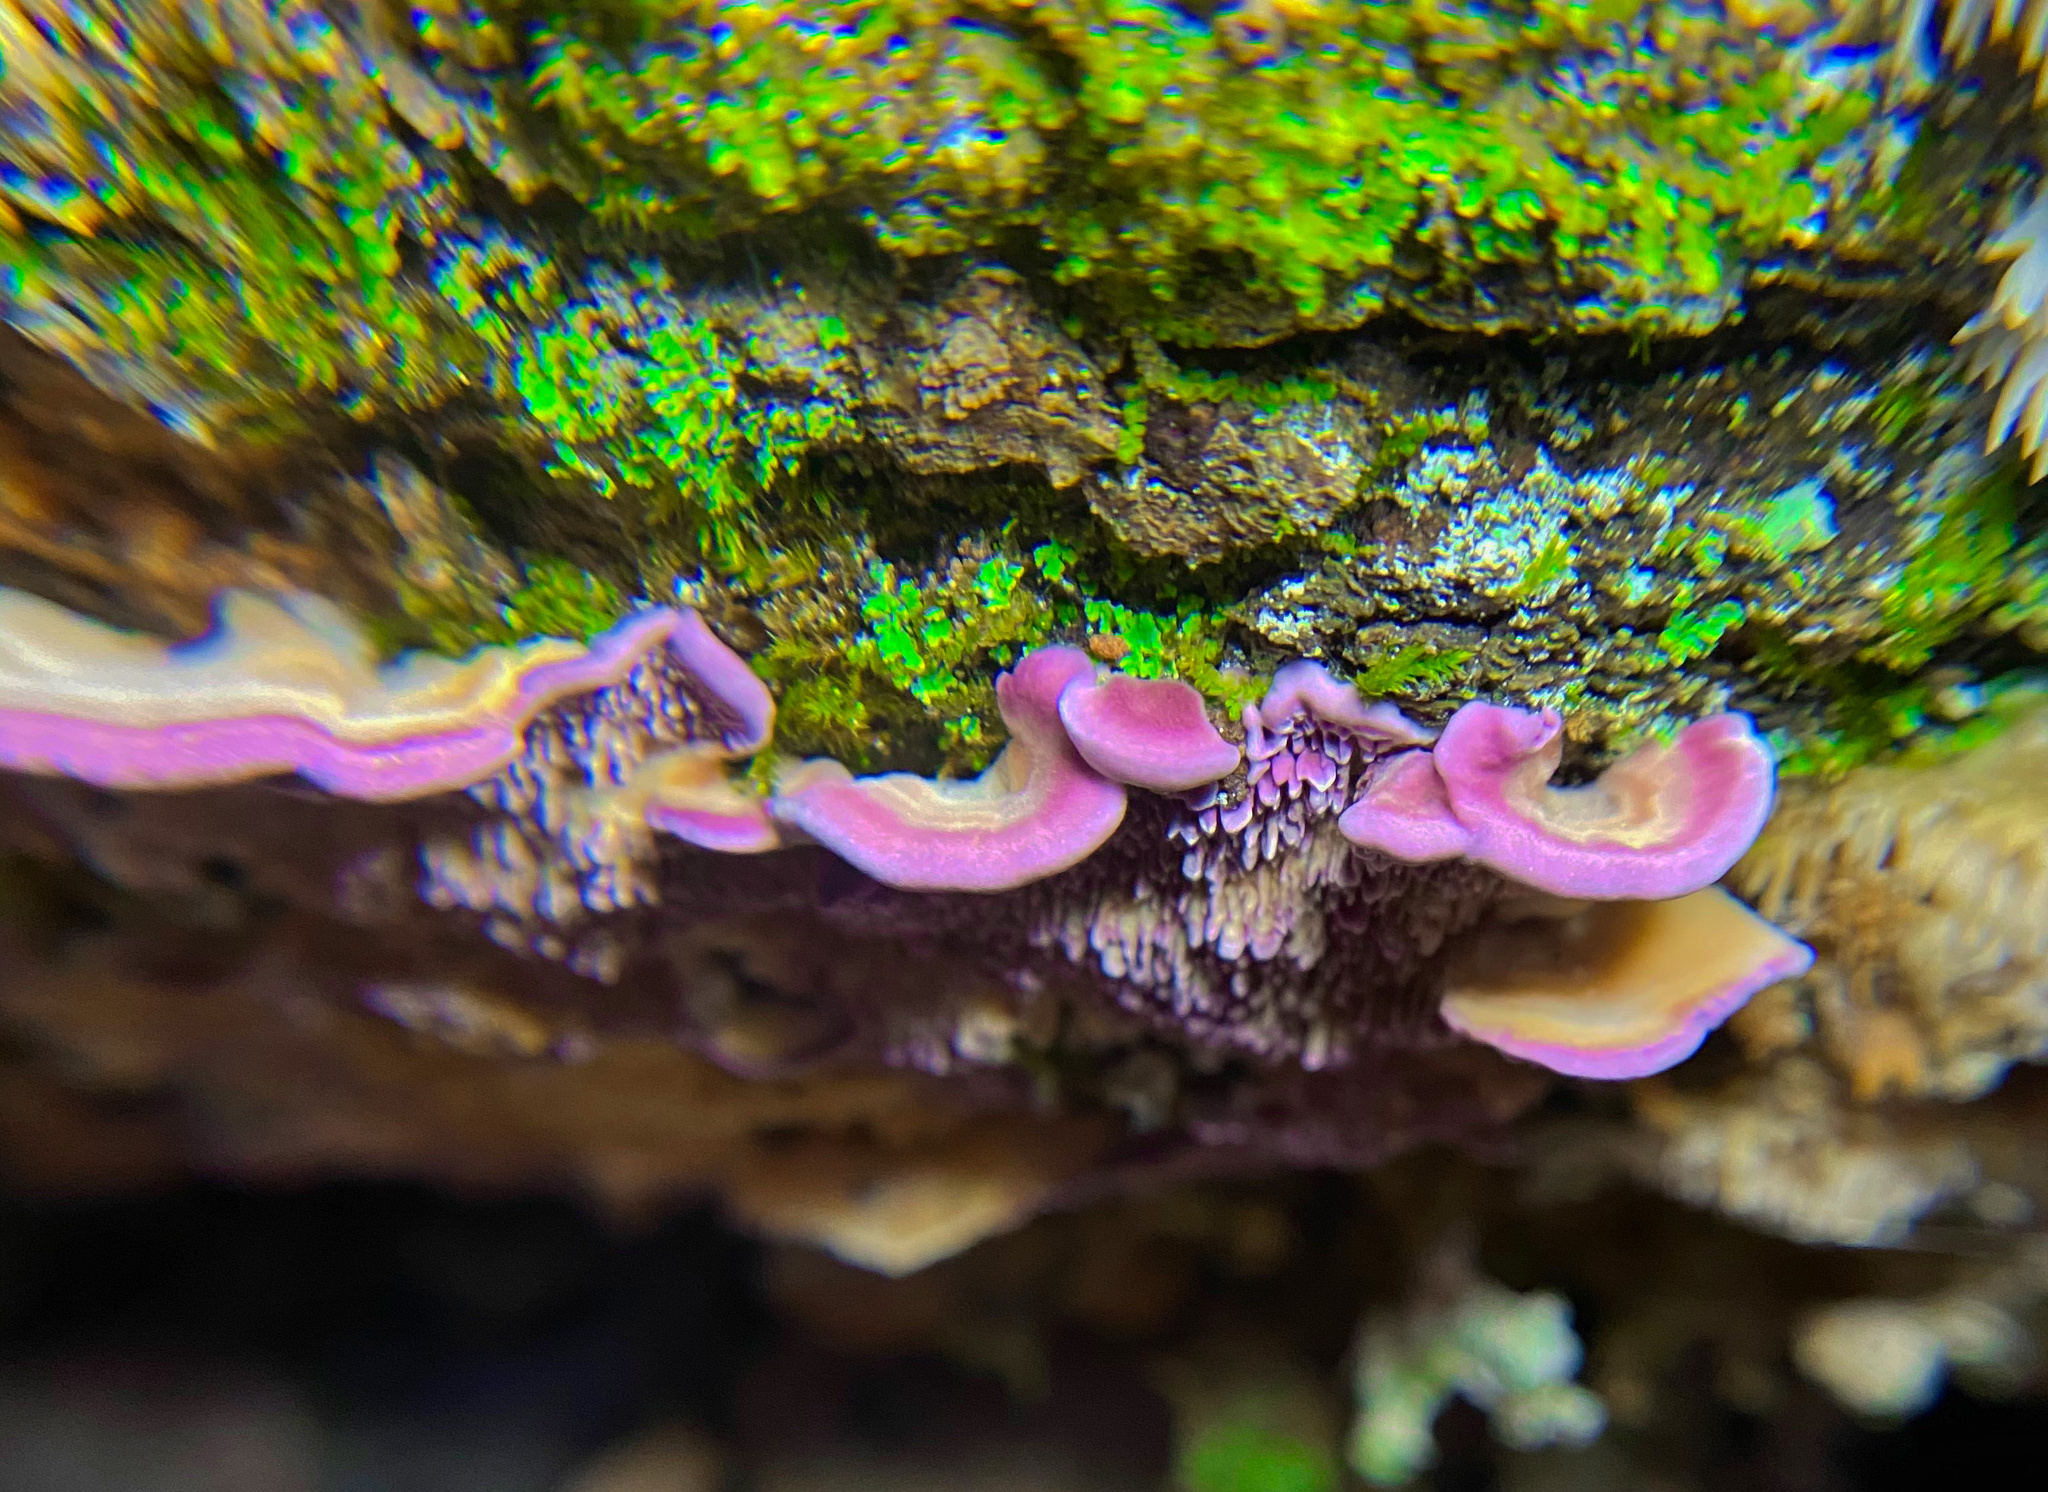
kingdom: Fungi
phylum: Basidiomycota
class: Agaricomycetes
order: Hymenochaetales
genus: Trichaptum
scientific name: Trichaptum fuscoviolaceum
